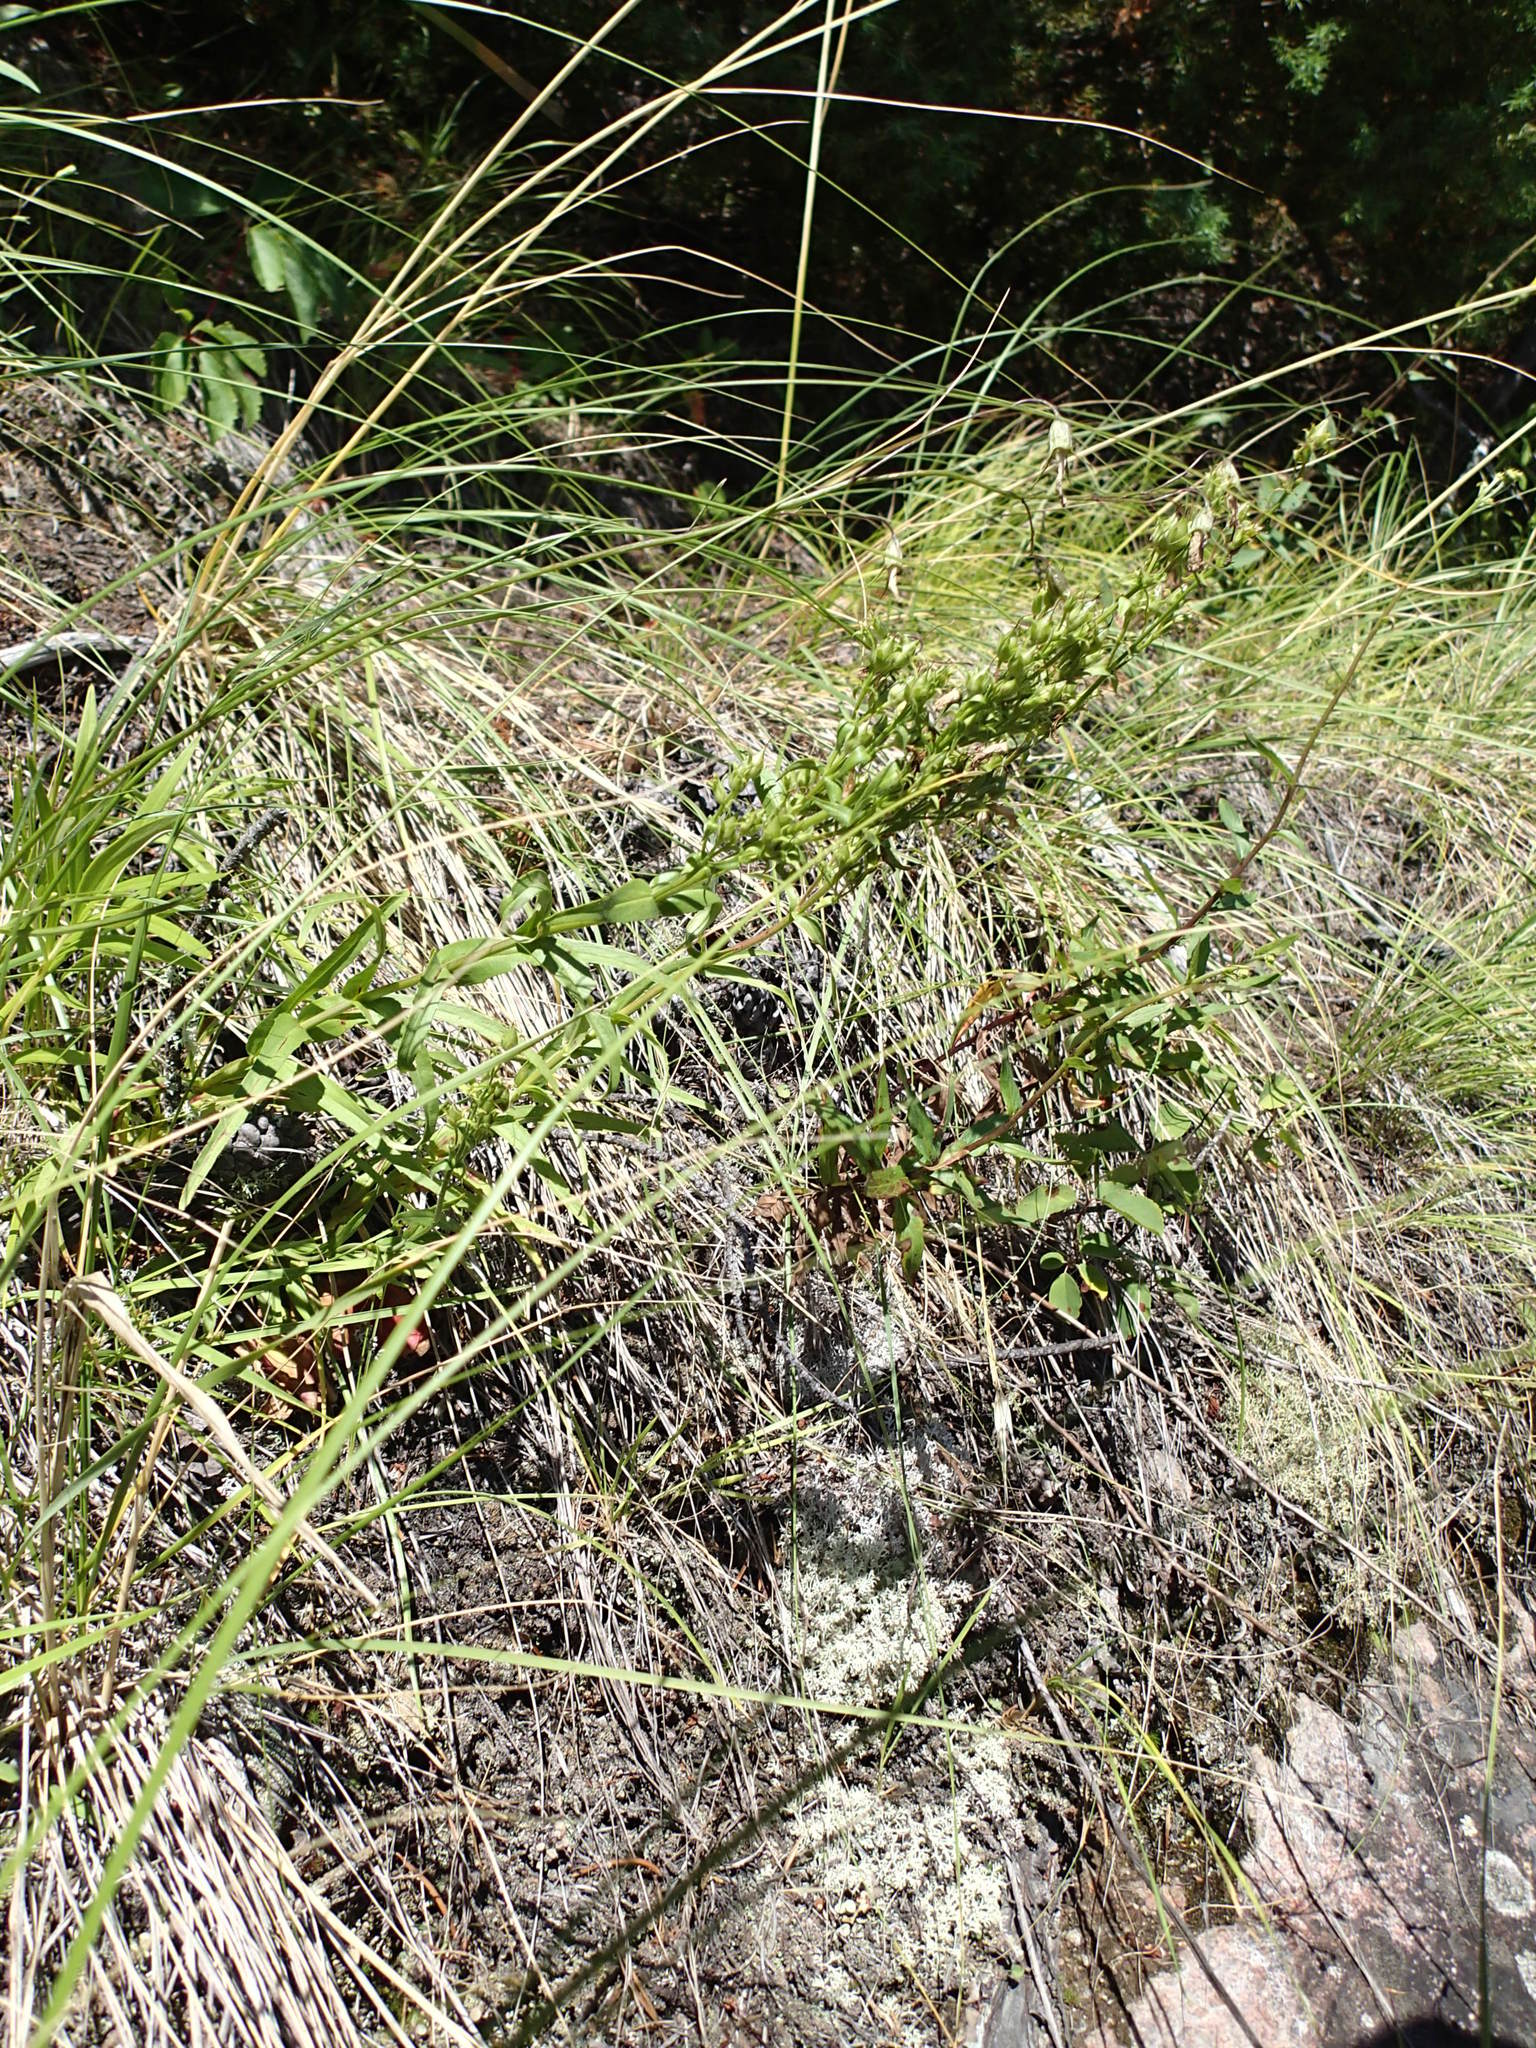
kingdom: Plantae
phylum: Tracheophyta
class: Magnoliopsida
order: Lamiales
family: Plantaginaceae
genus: Penstemon
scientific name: Penstemon gracilis
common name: Slender beardtongue
